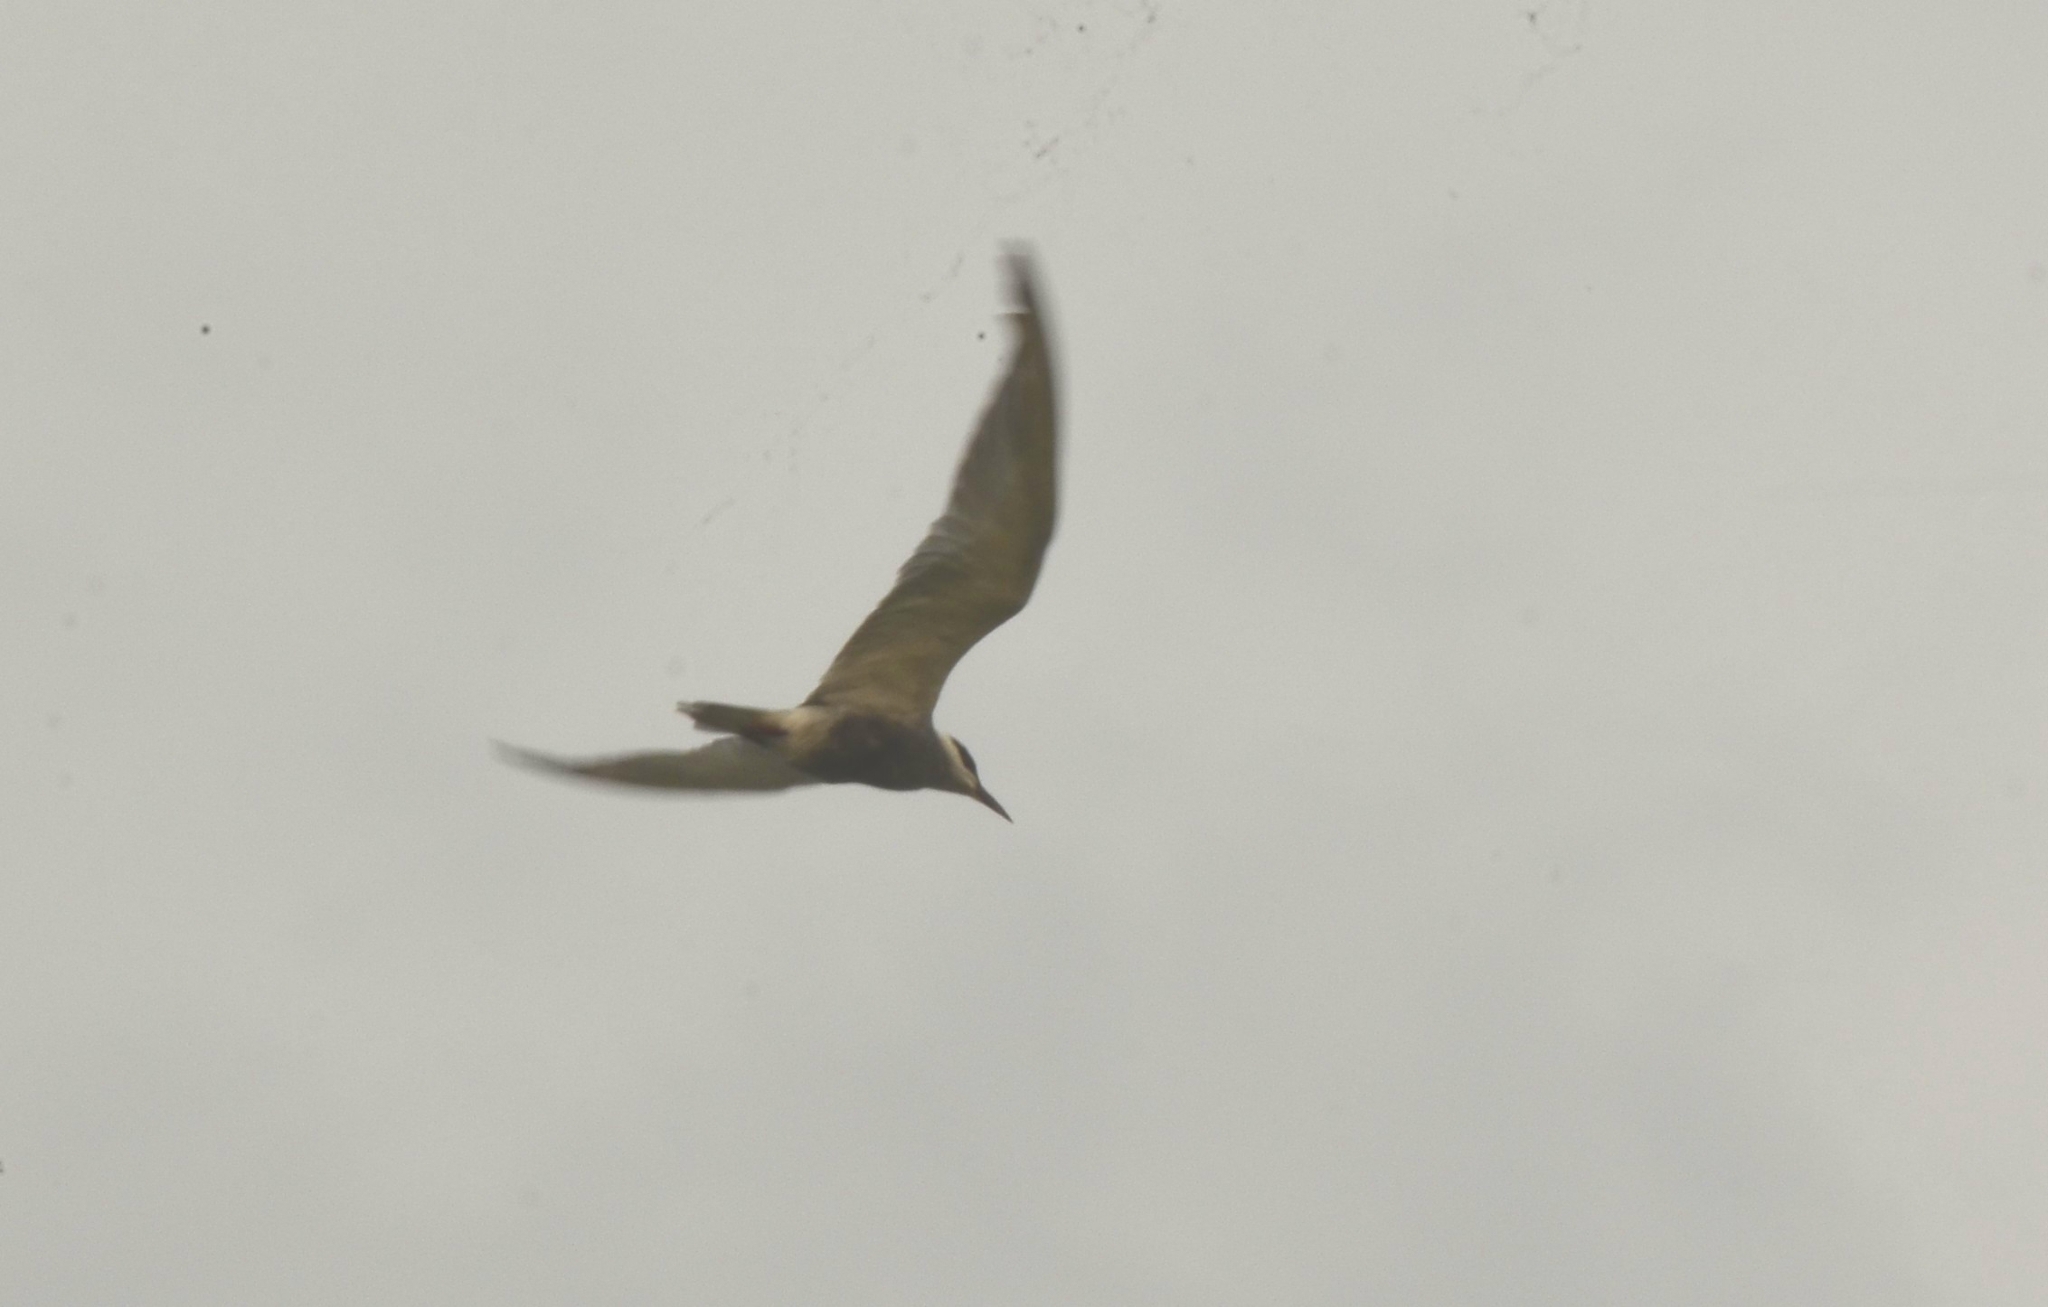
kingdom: Animalia
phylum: Chordata
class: Aves
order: Charadriiformes
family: Laridae
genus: Chlidonias
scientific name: Chlidonias hybrida
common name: Whiskered tern
